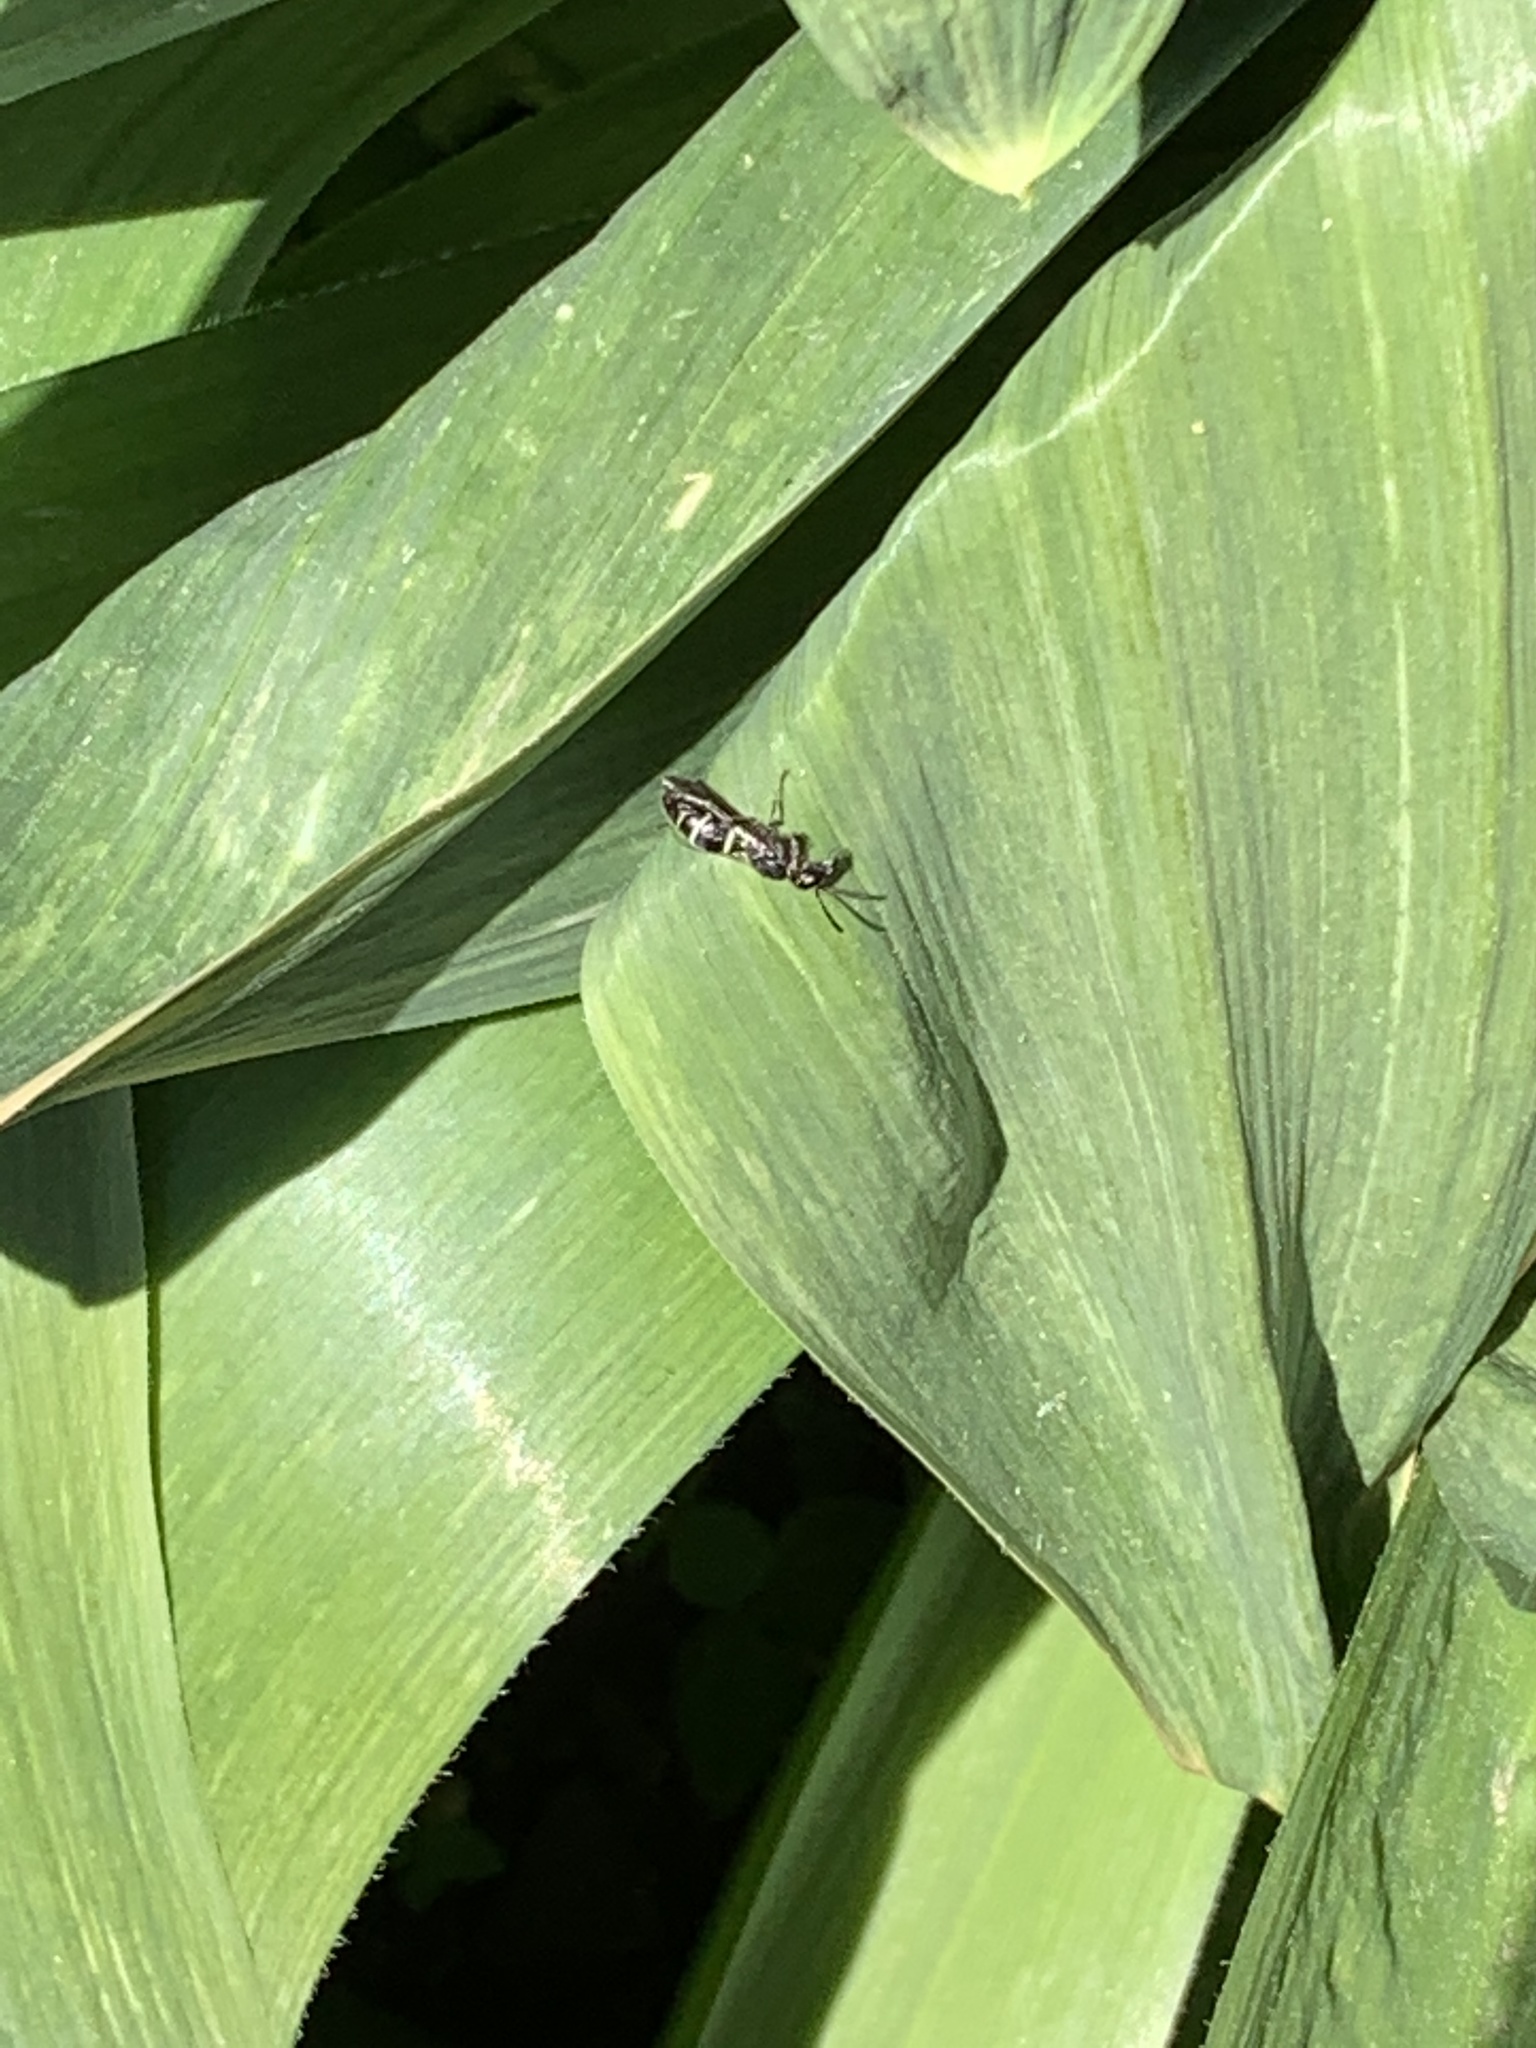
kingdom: Animalia
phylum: Arthropoda
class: Insecta
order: Hymenoptera
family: Eumenidae
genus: Symmorphus
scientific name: Symmorphus
